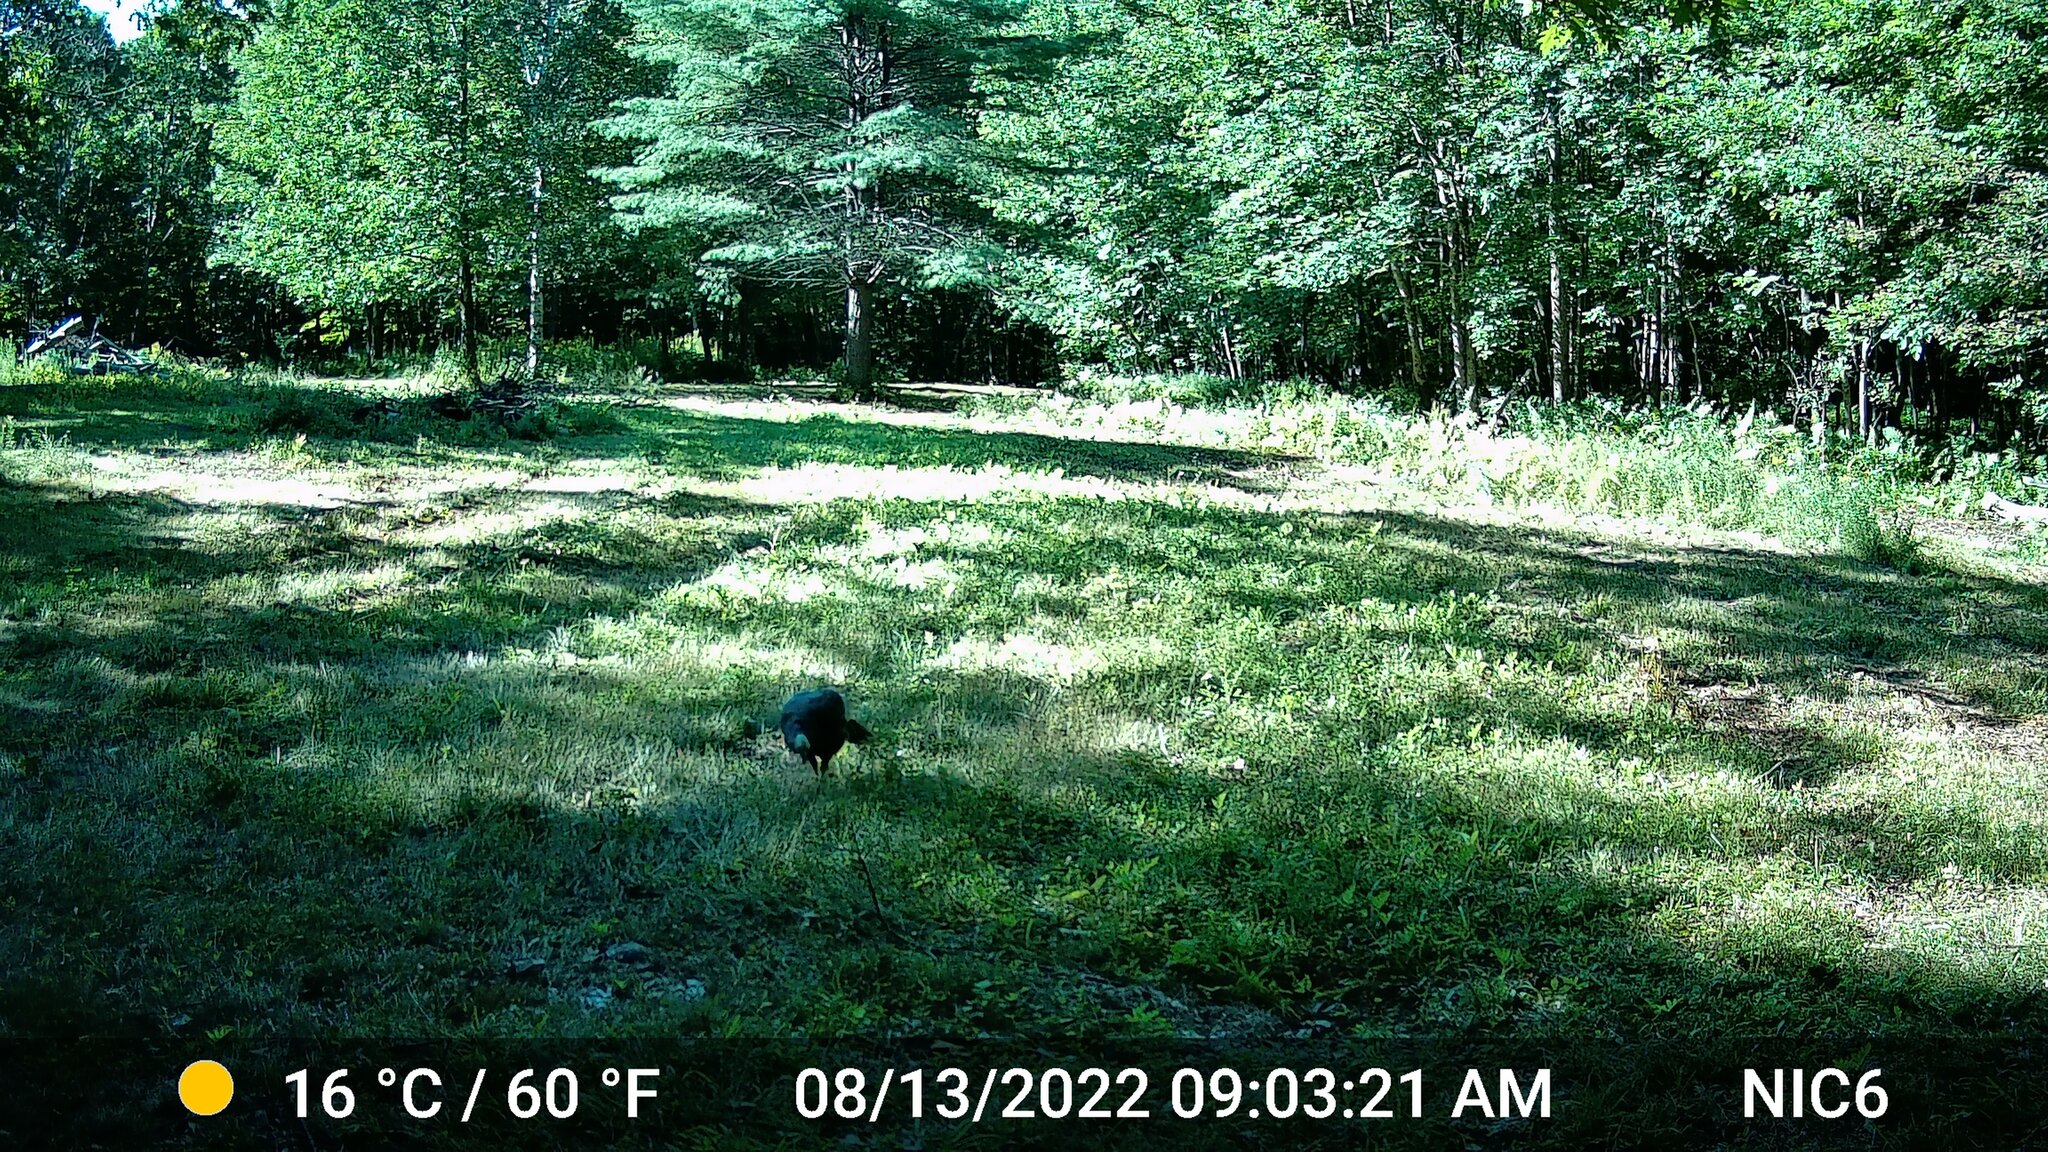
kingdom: Animalia
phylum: Chordata
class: Aves
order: Galliformes
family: Phasianidae
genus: Meleagris
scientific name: Meleagris gallopavo
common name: Wild turkey
